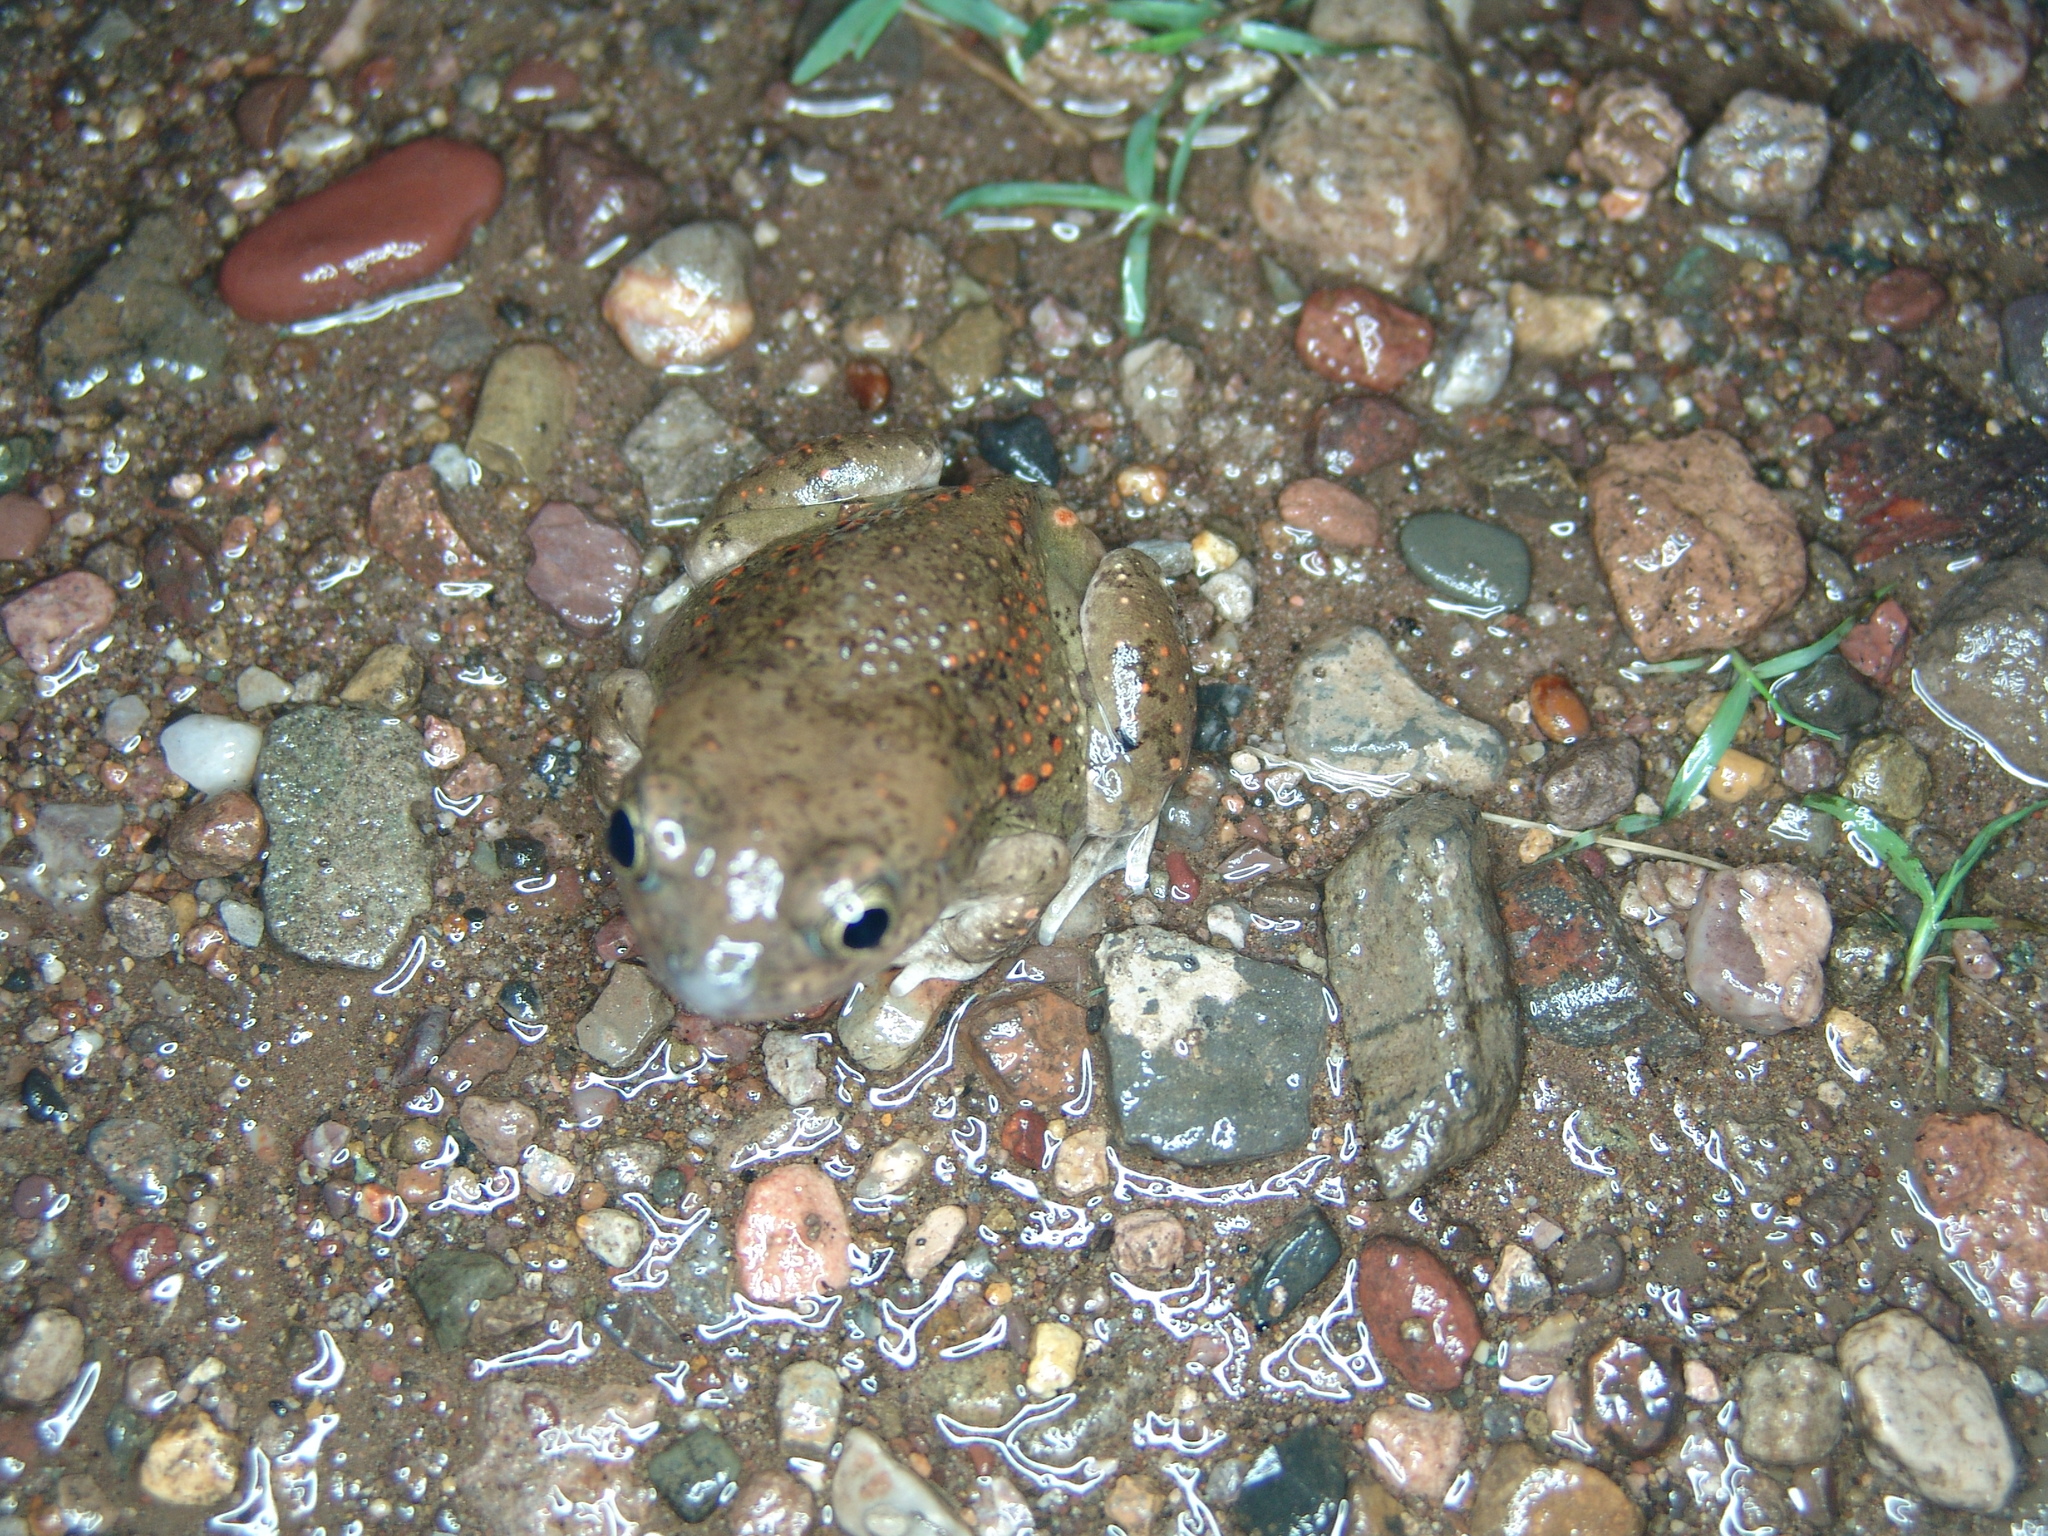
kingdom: Animalia
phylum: Chordata
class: Amphibia
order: Anura
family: Scaphiopodidae
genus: Spea
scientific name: Spea bombifrons
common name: Plains spadefoot
